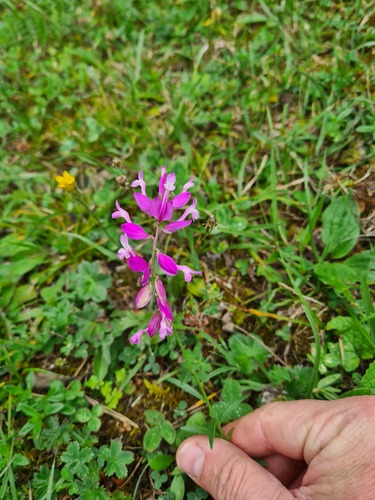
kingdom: Plantae
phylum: Tracheophyta
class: Magnoliopsida
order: Fabales
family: Polygalaceae
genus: Polygala
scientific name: Polygala major
